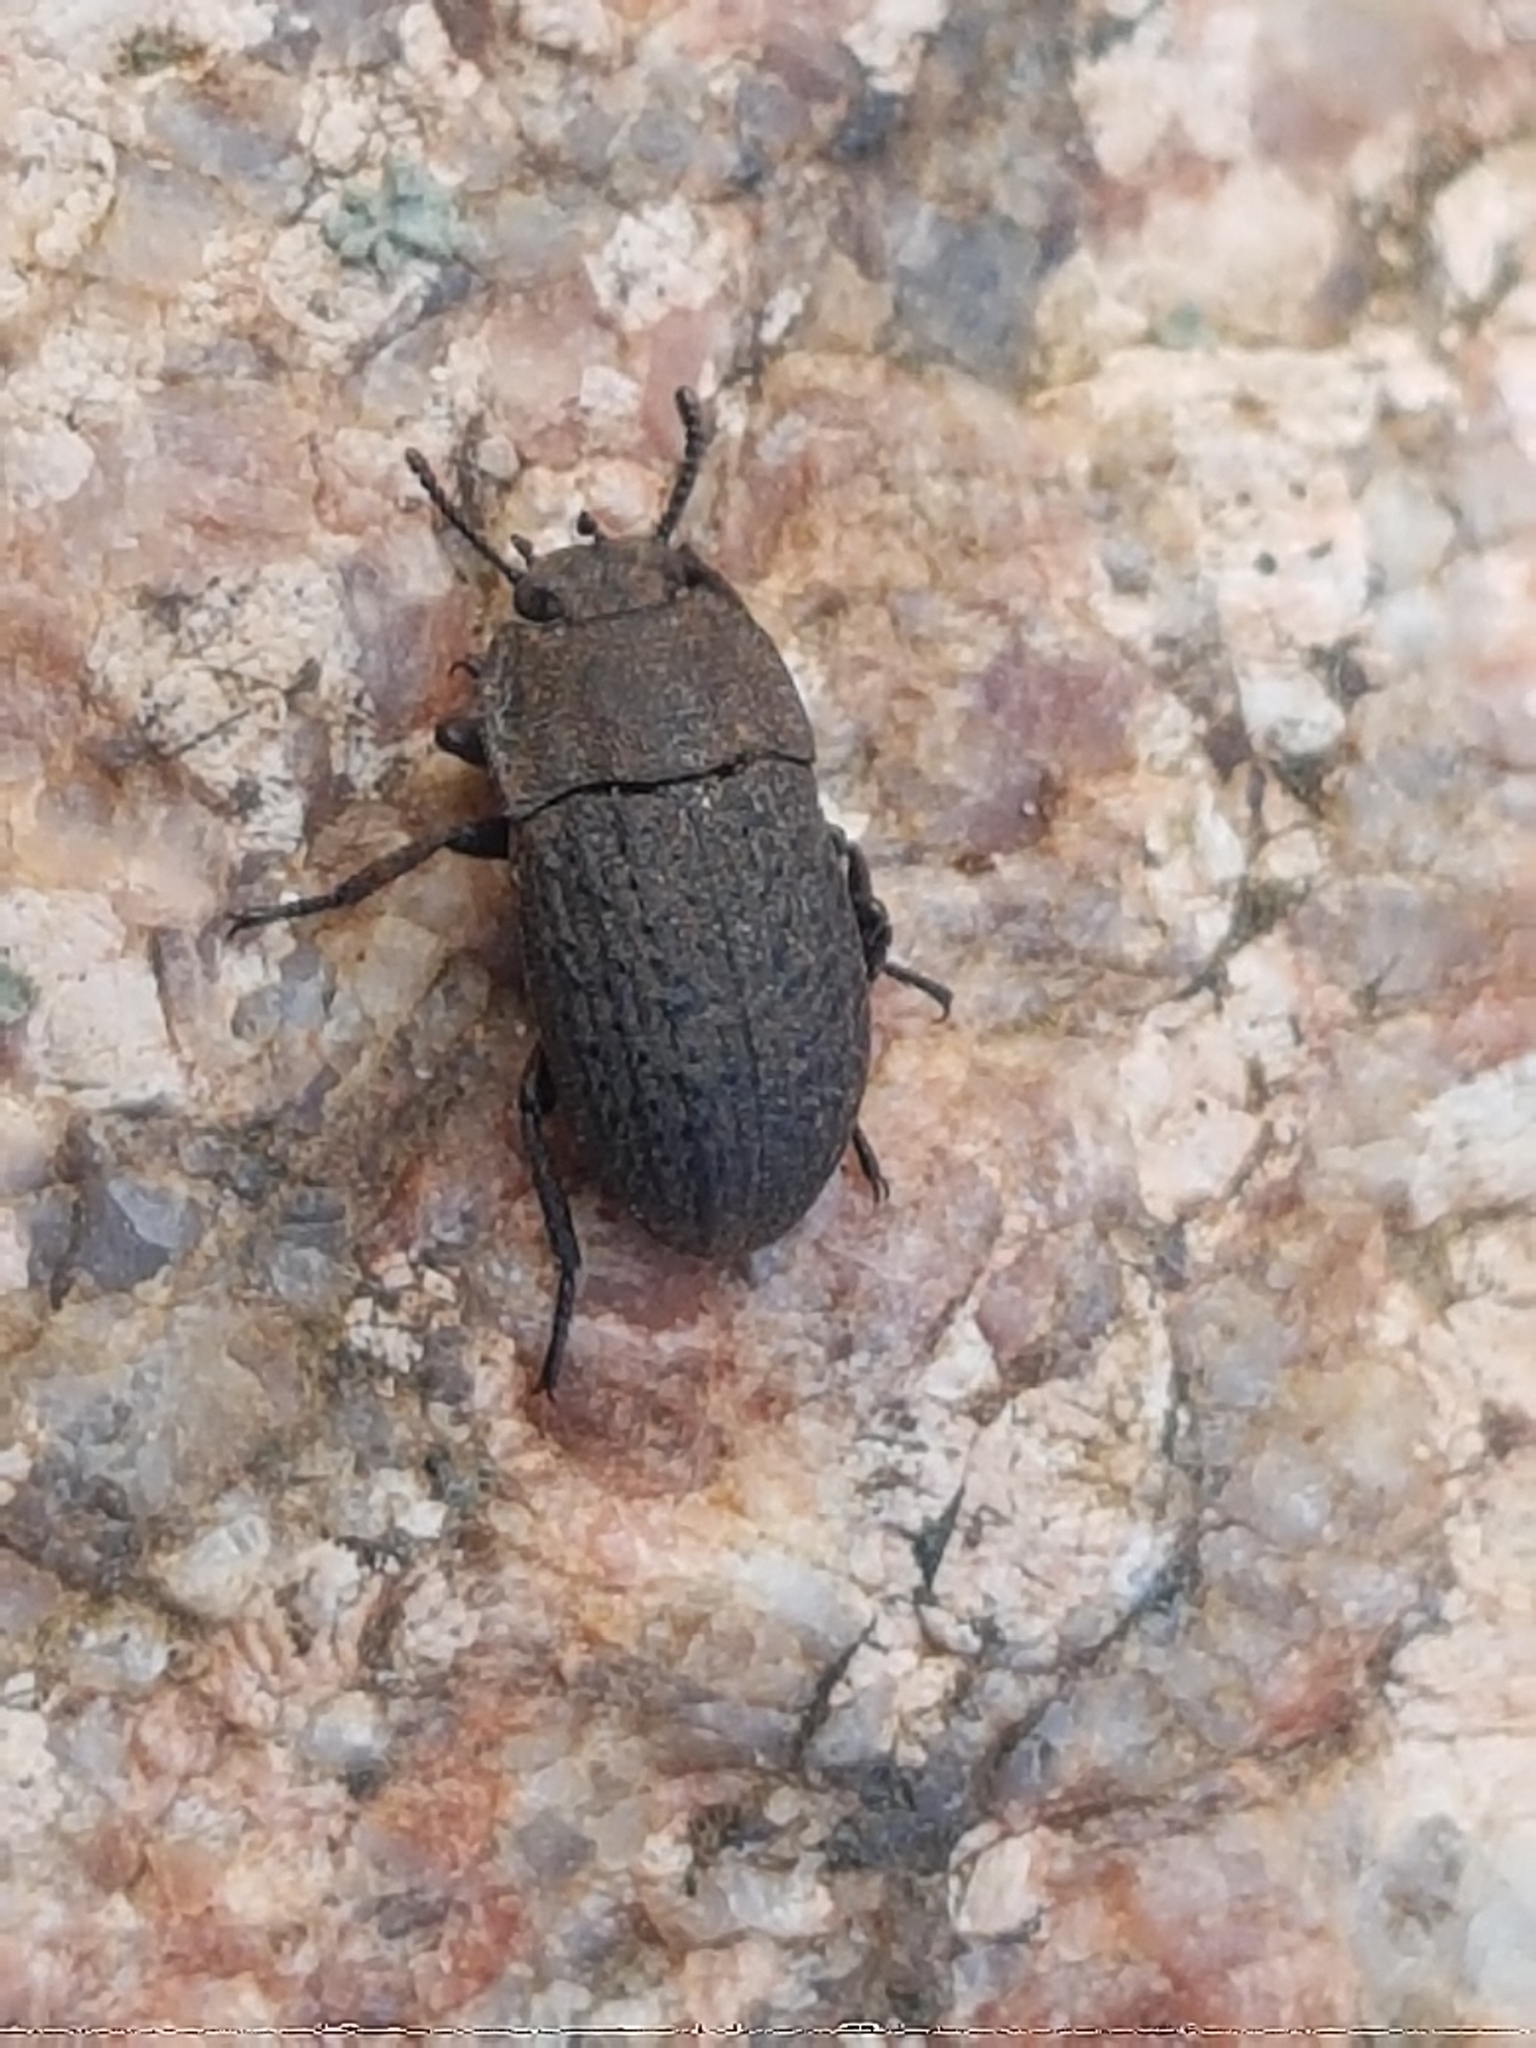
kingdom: Animalia
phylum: Arthropoda
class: Insecta
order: Coleoptera
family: Tenebrionidae
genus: Opatrum
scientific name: Opatrum sabulosum
